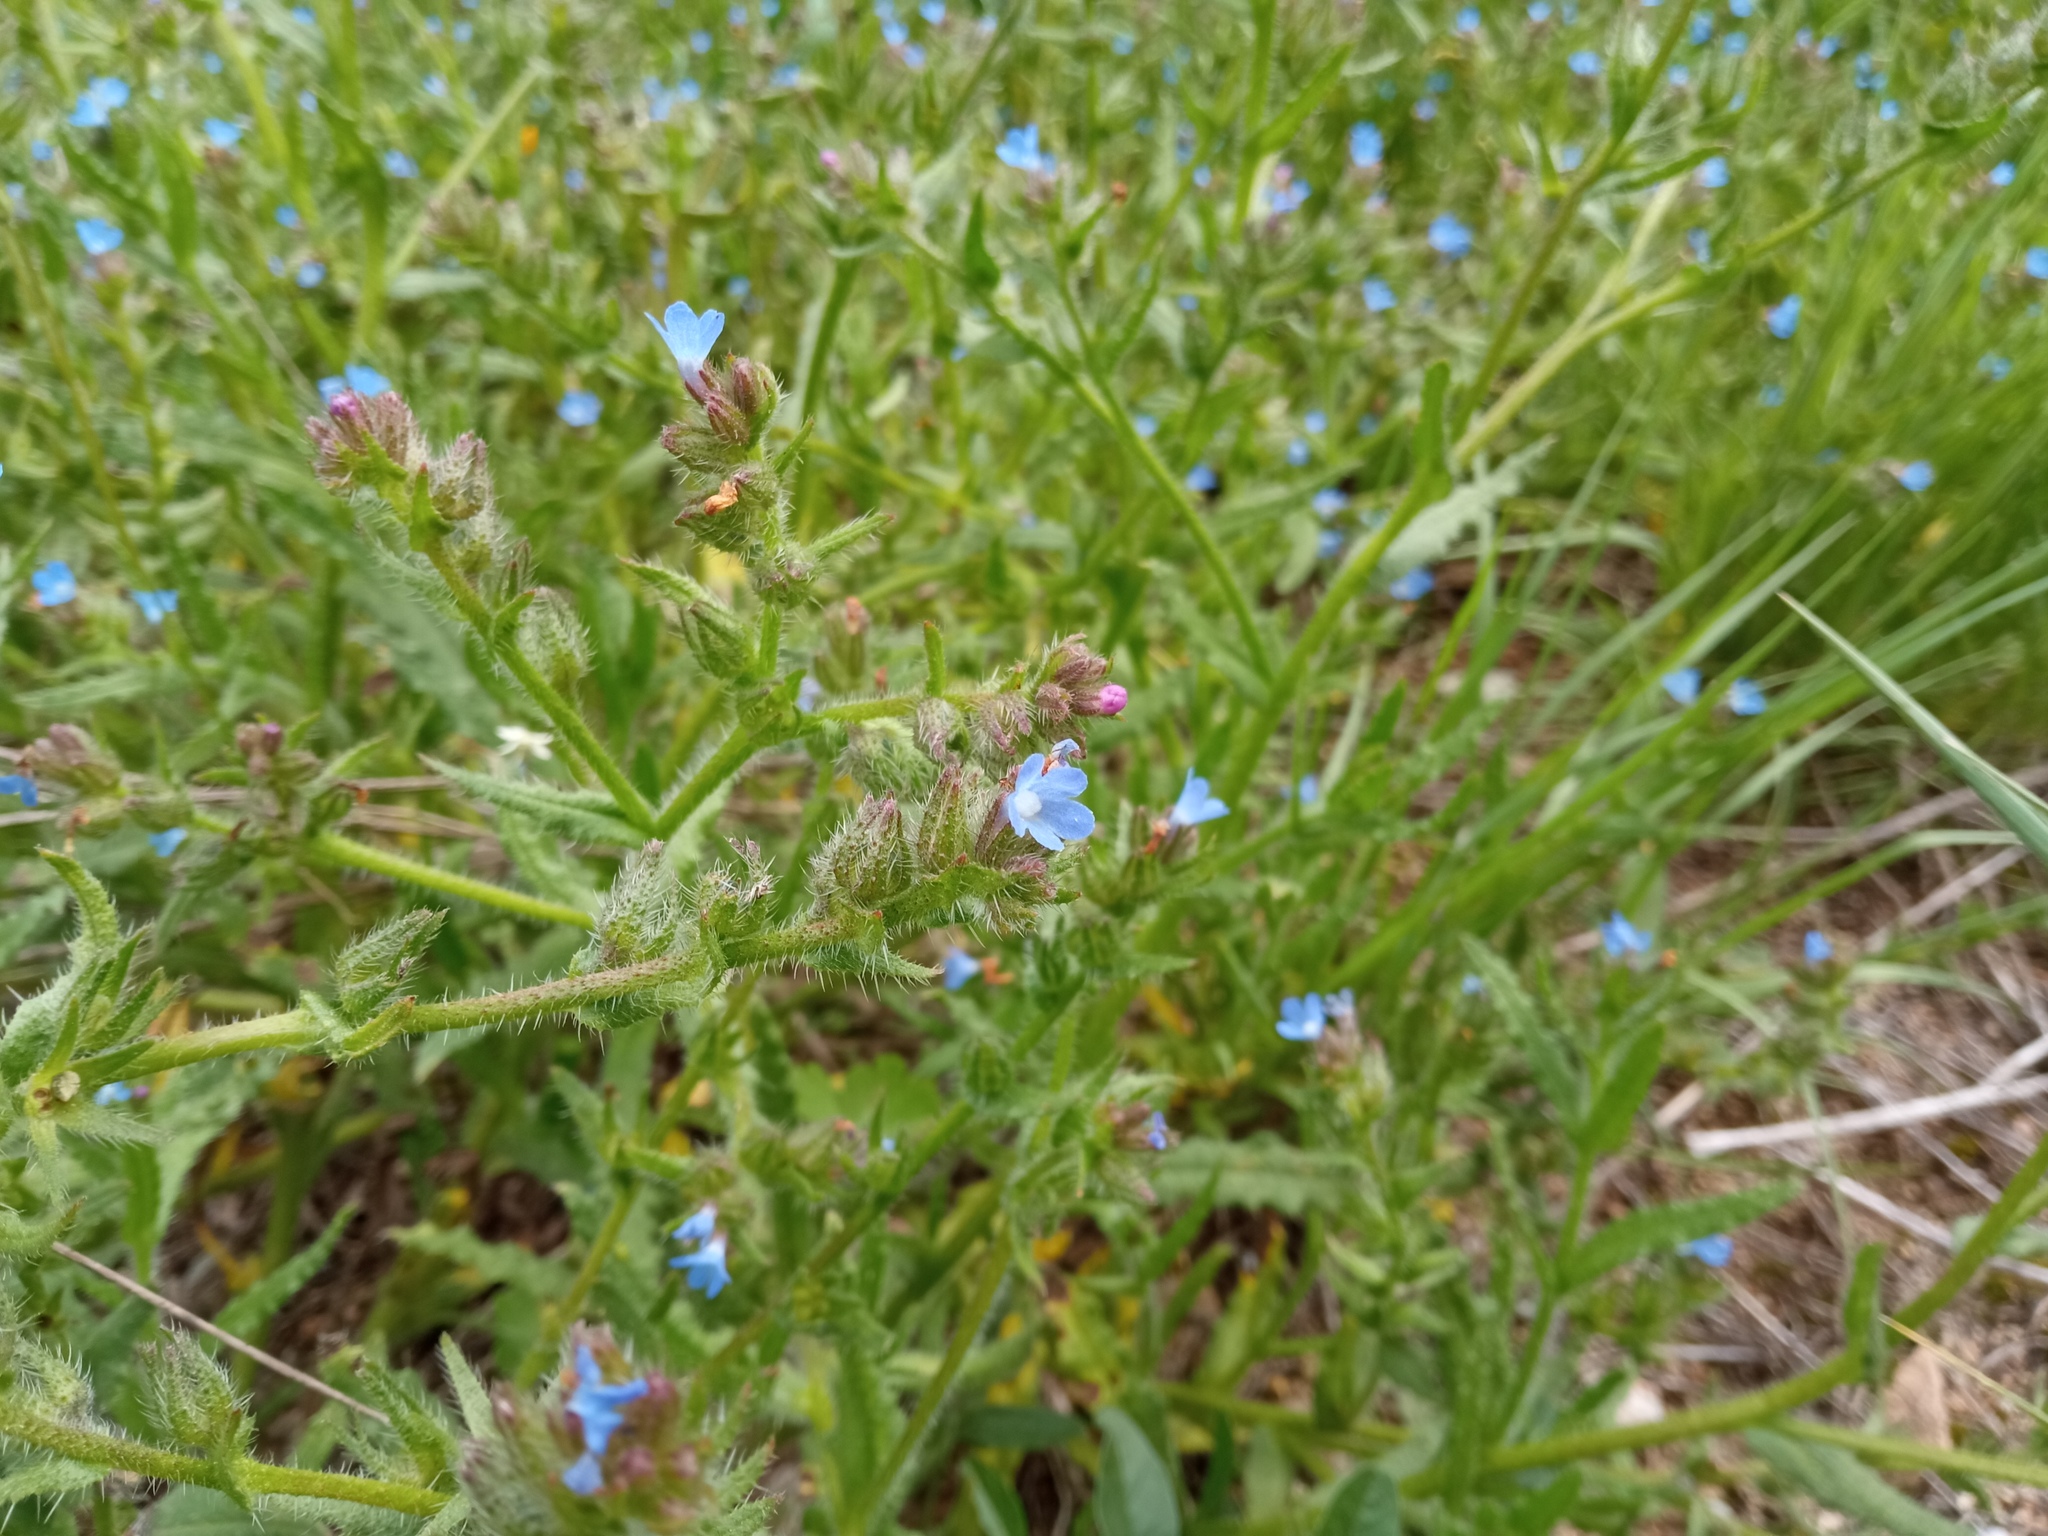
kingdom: Plantae
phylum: Tracheophyta
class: Magnoliopsida
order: Boraginales
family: Boraginaceae
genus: Lycopsis
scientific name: Lycopsis arvensis
